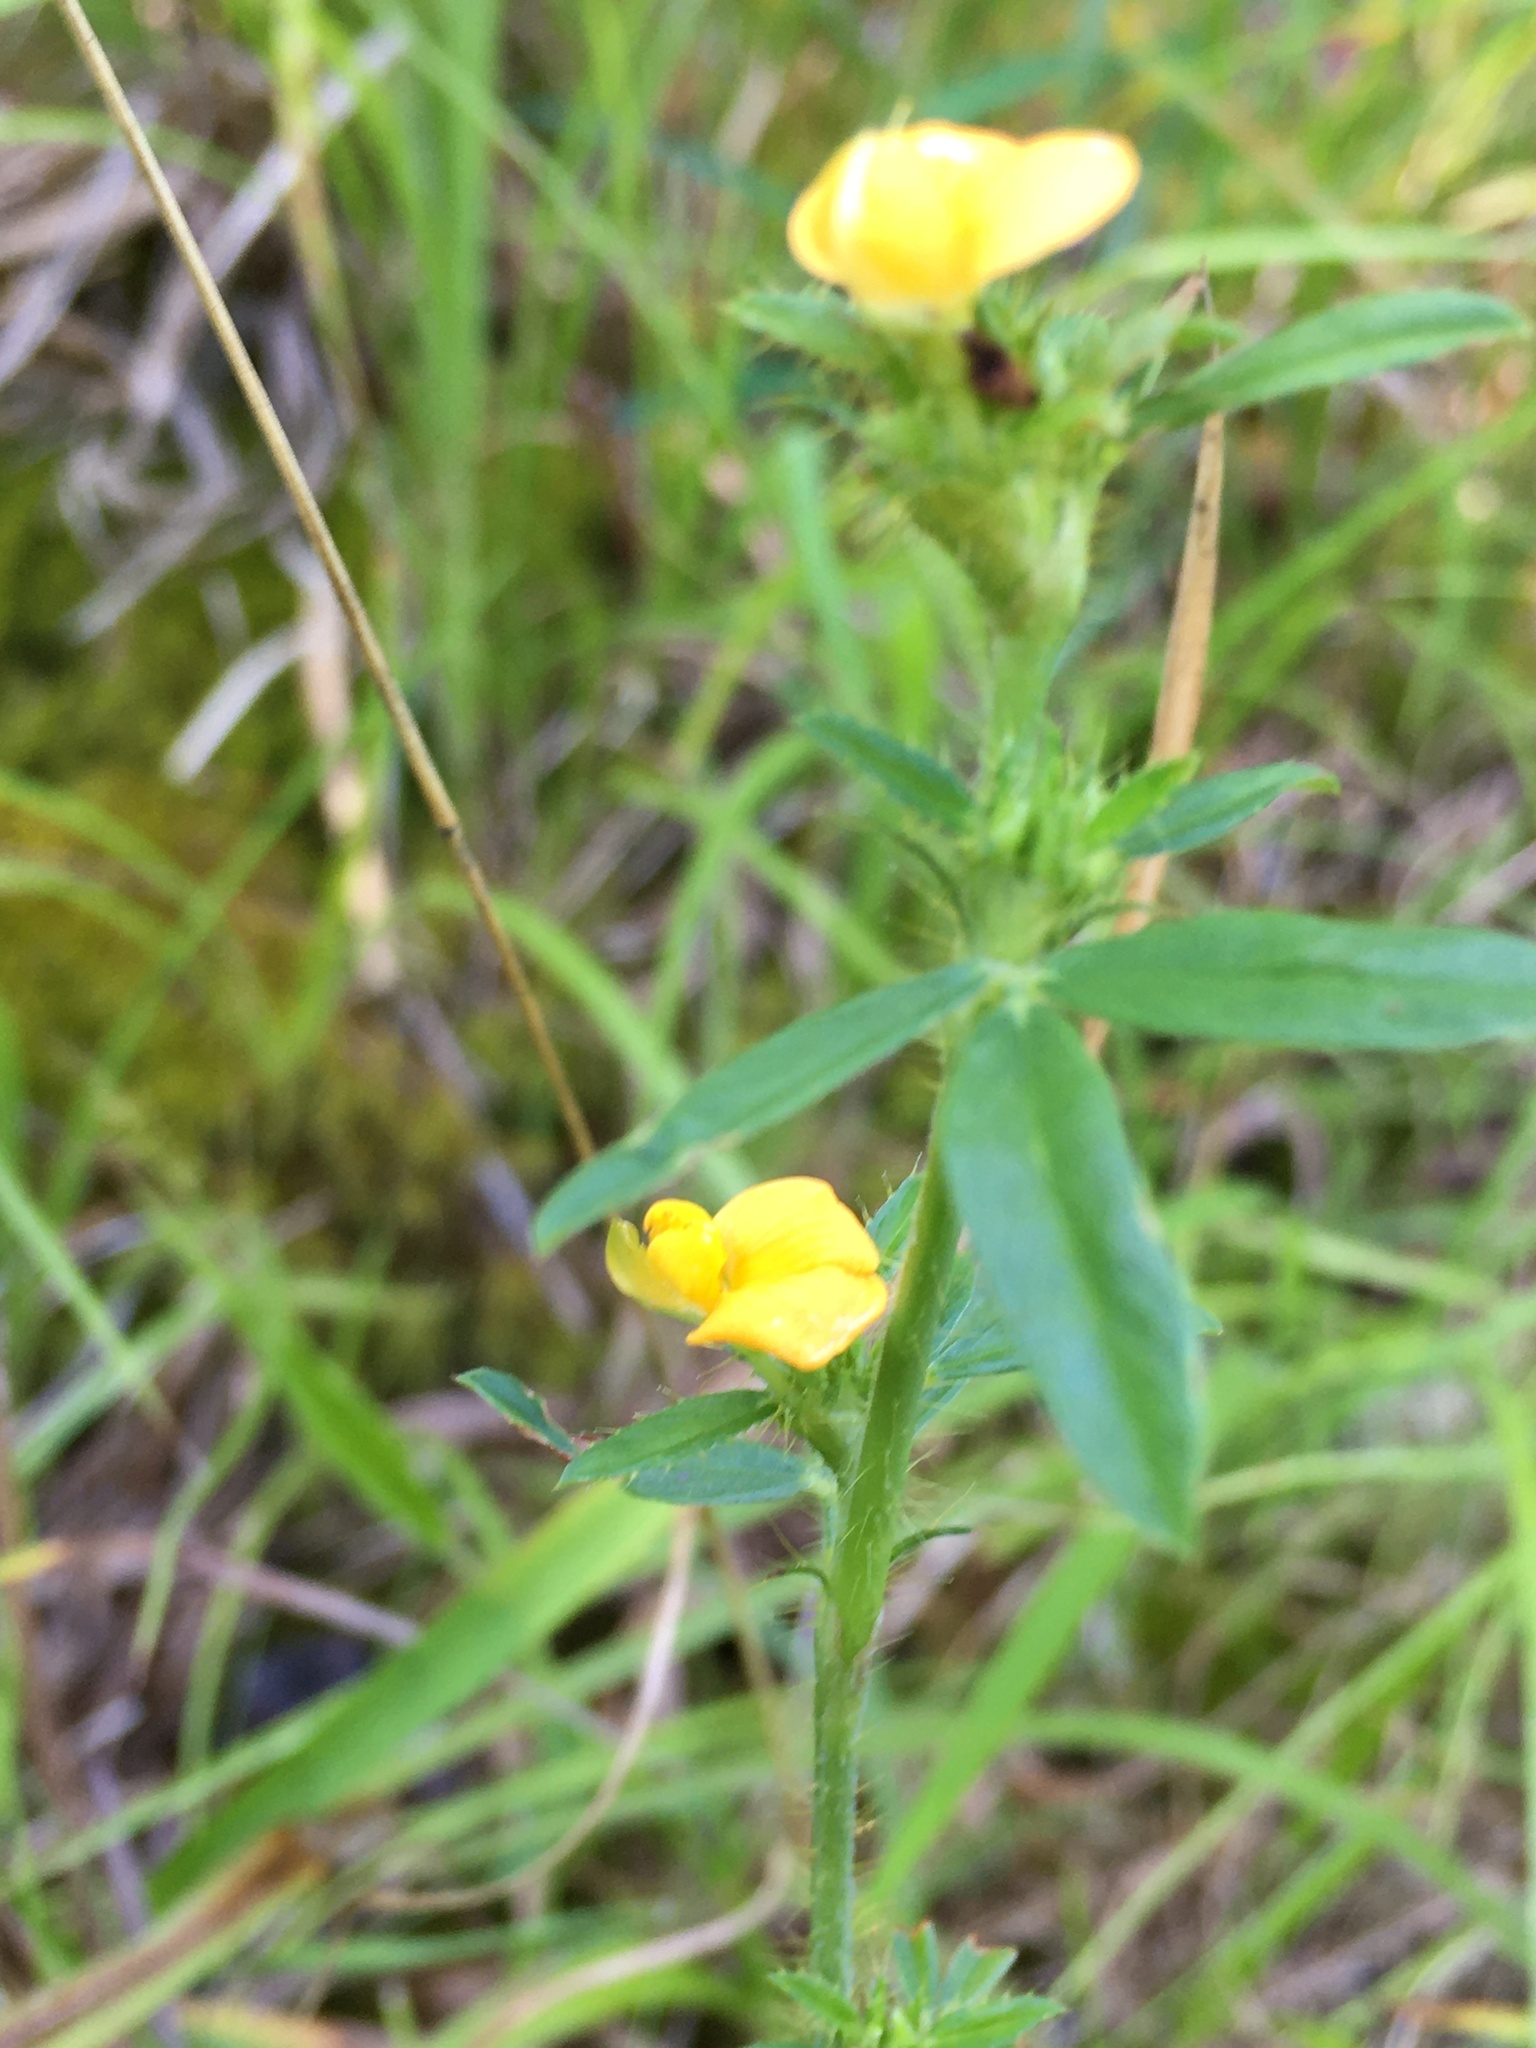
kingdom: Plantae
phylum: Tracheophyta
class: Magnoliopsida
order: Fabales
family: Fabaceae
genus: Stylosanthes
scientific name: Stylosanthes biflora
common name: Two-flower pencil-flower
